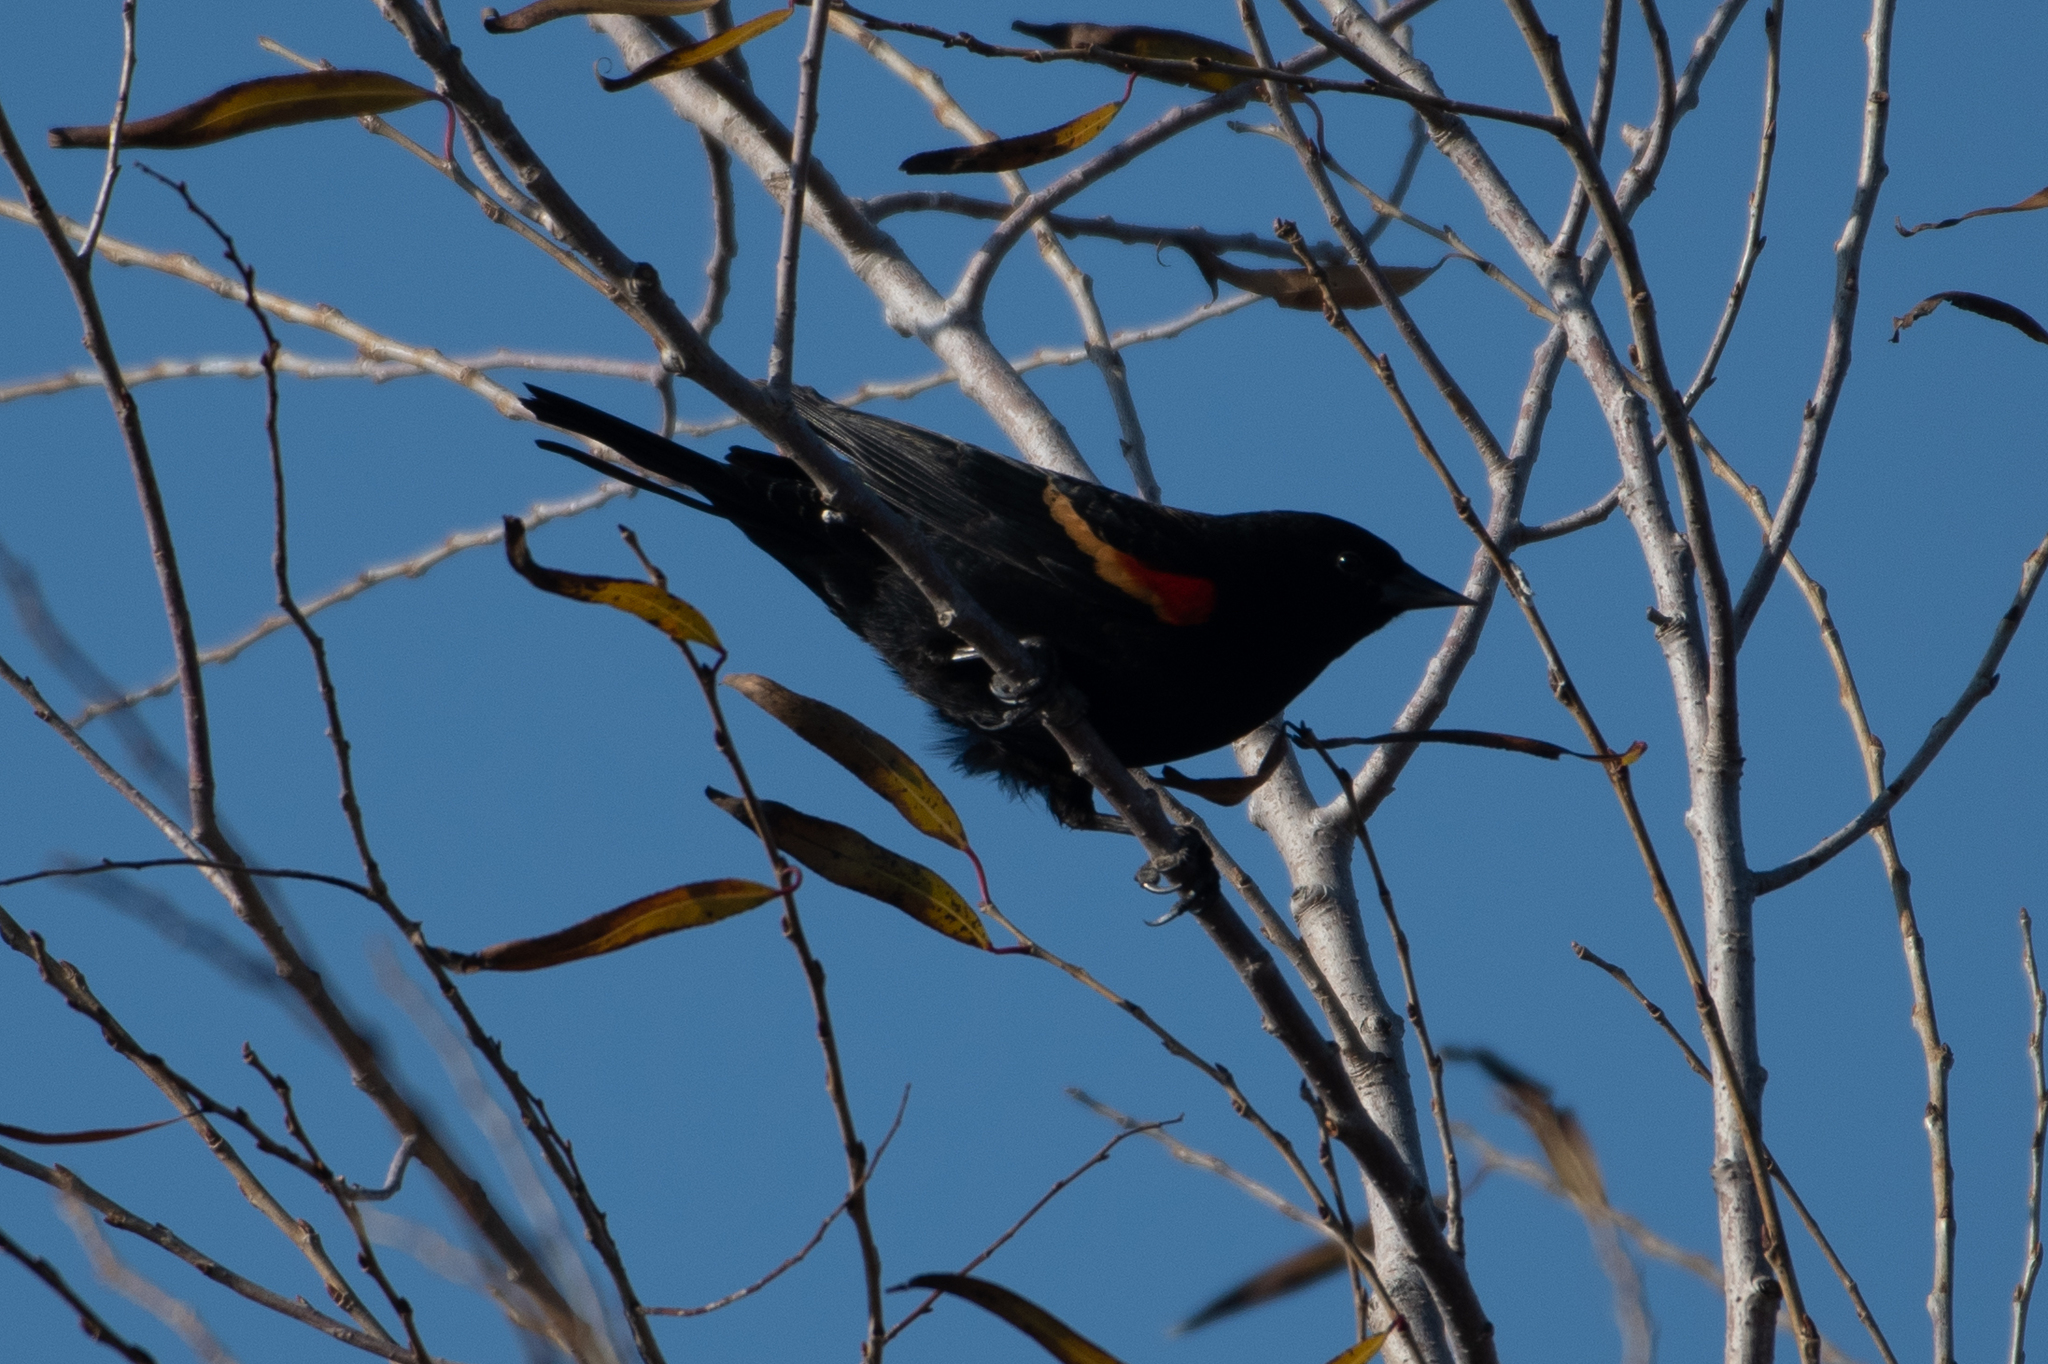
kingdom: Animalia
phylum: Chordata
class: Aves
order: Passeriformes
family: Icteridae
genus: Agelaius
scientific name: Agelaius phoeniceus
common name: Red-winged blackbird
